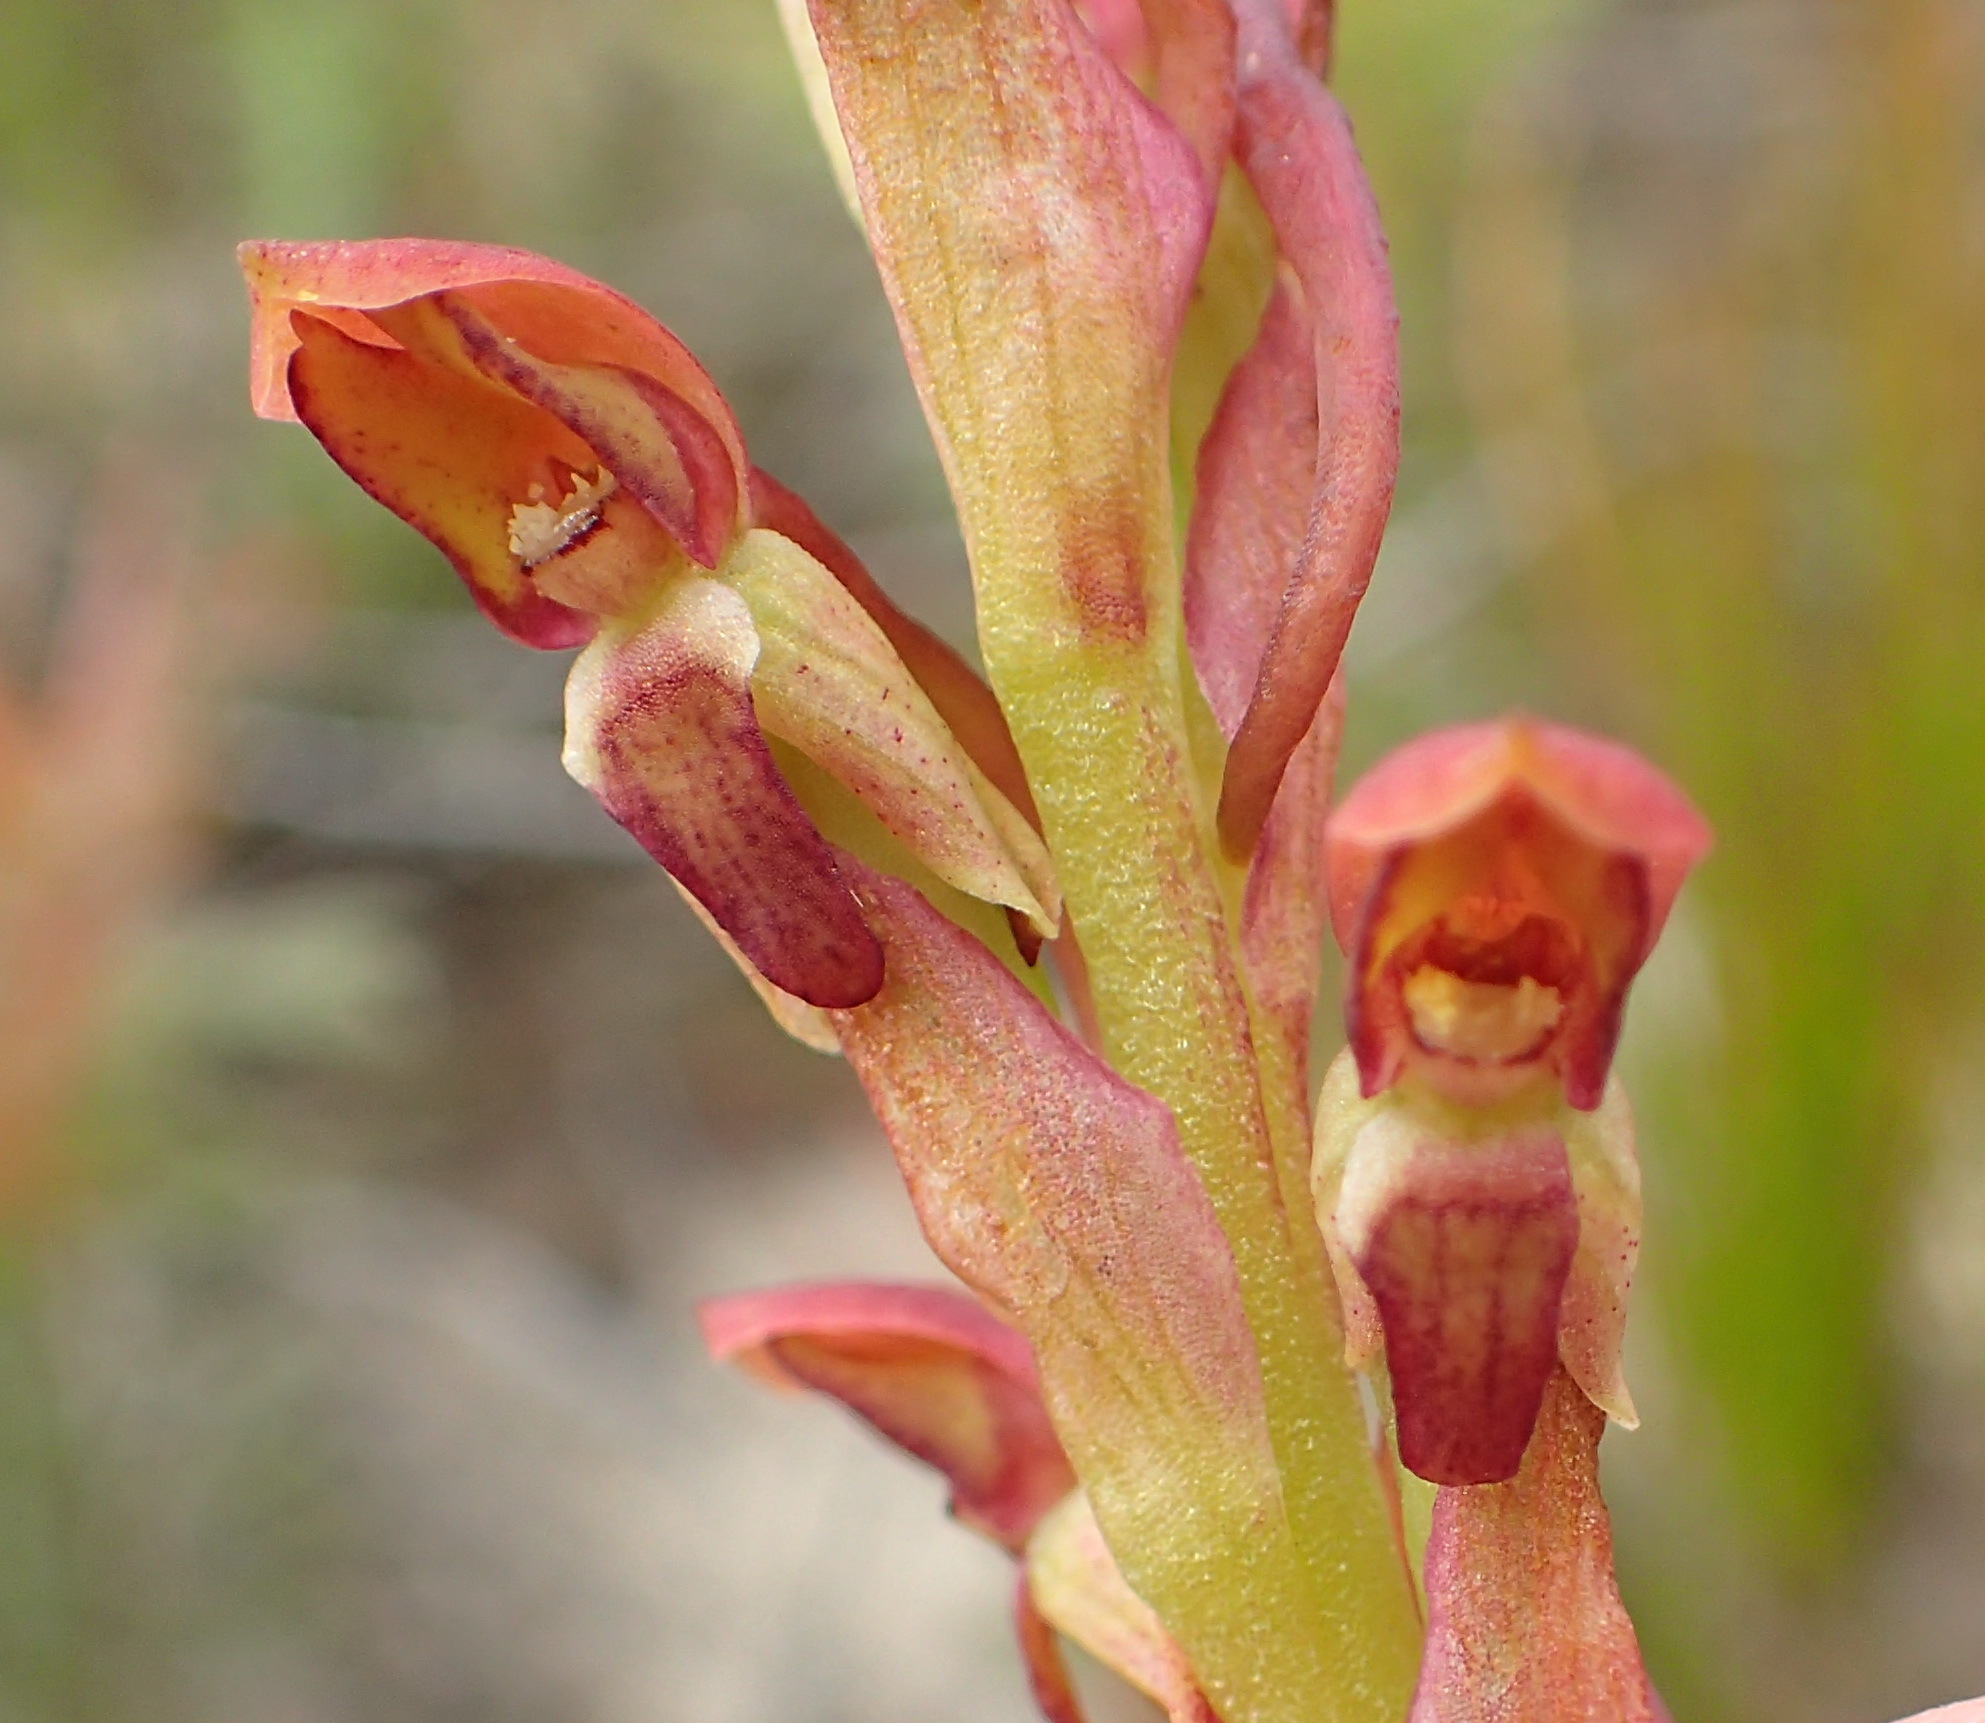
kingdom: Plantae
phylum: Tracheophyta
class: Liliopsida
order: Asparagales
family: Orchidaceae
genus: Disa
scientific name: Disa reticulata
